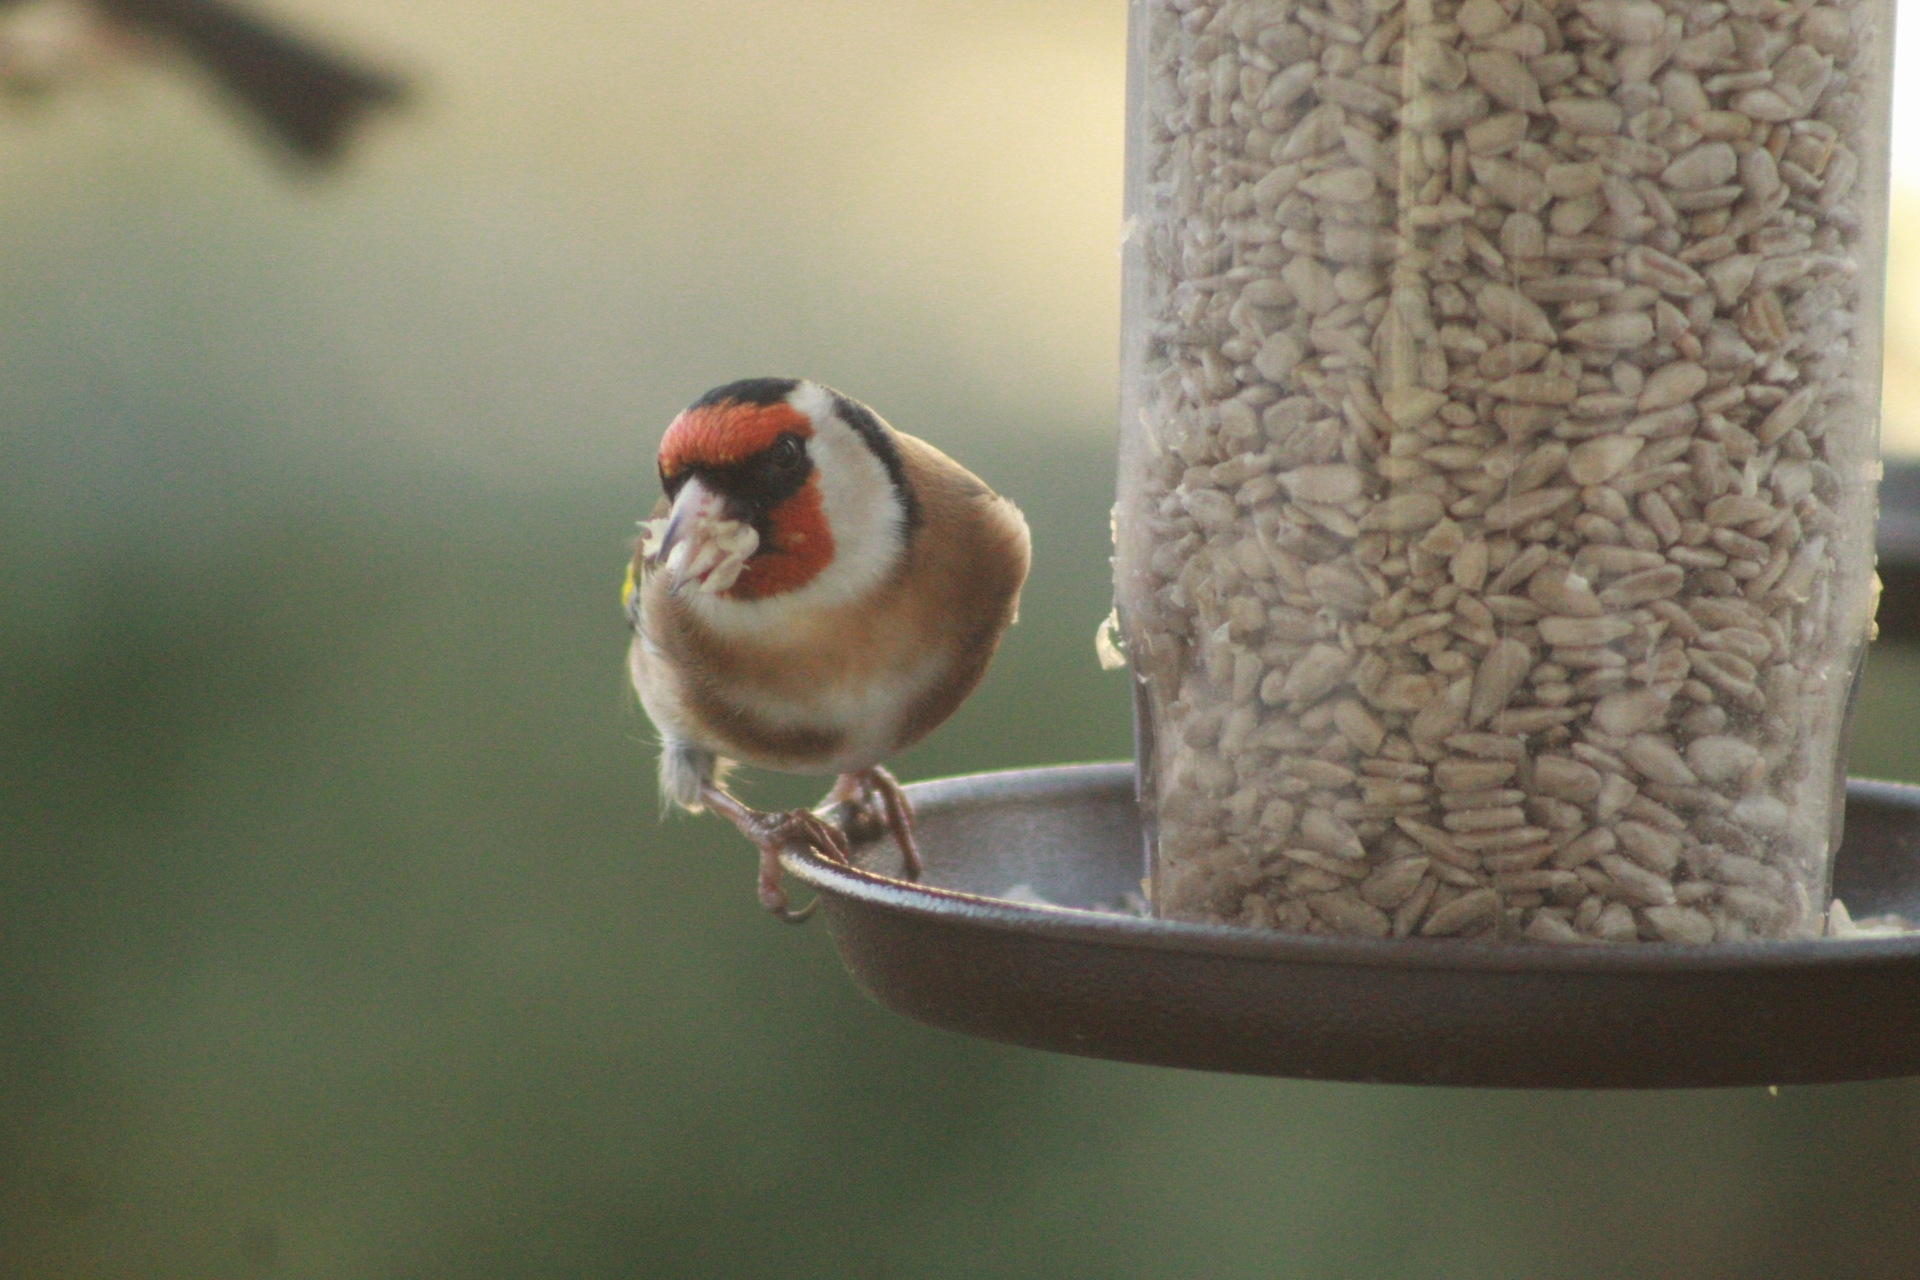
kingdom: Animalia
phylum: Chordata
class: Aves
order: Passeriformes
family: Fringillidae
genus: Carduelis
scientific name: Carduelis carduelis
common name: European goldfinch
